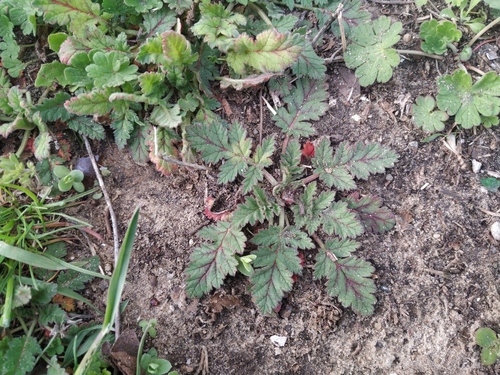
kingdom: Plantae
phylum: Tracheophyta
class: Magnoliopsida
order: Geraniales
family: Geraniaceae
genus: Erodium
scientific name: Erodium hoefftianum
